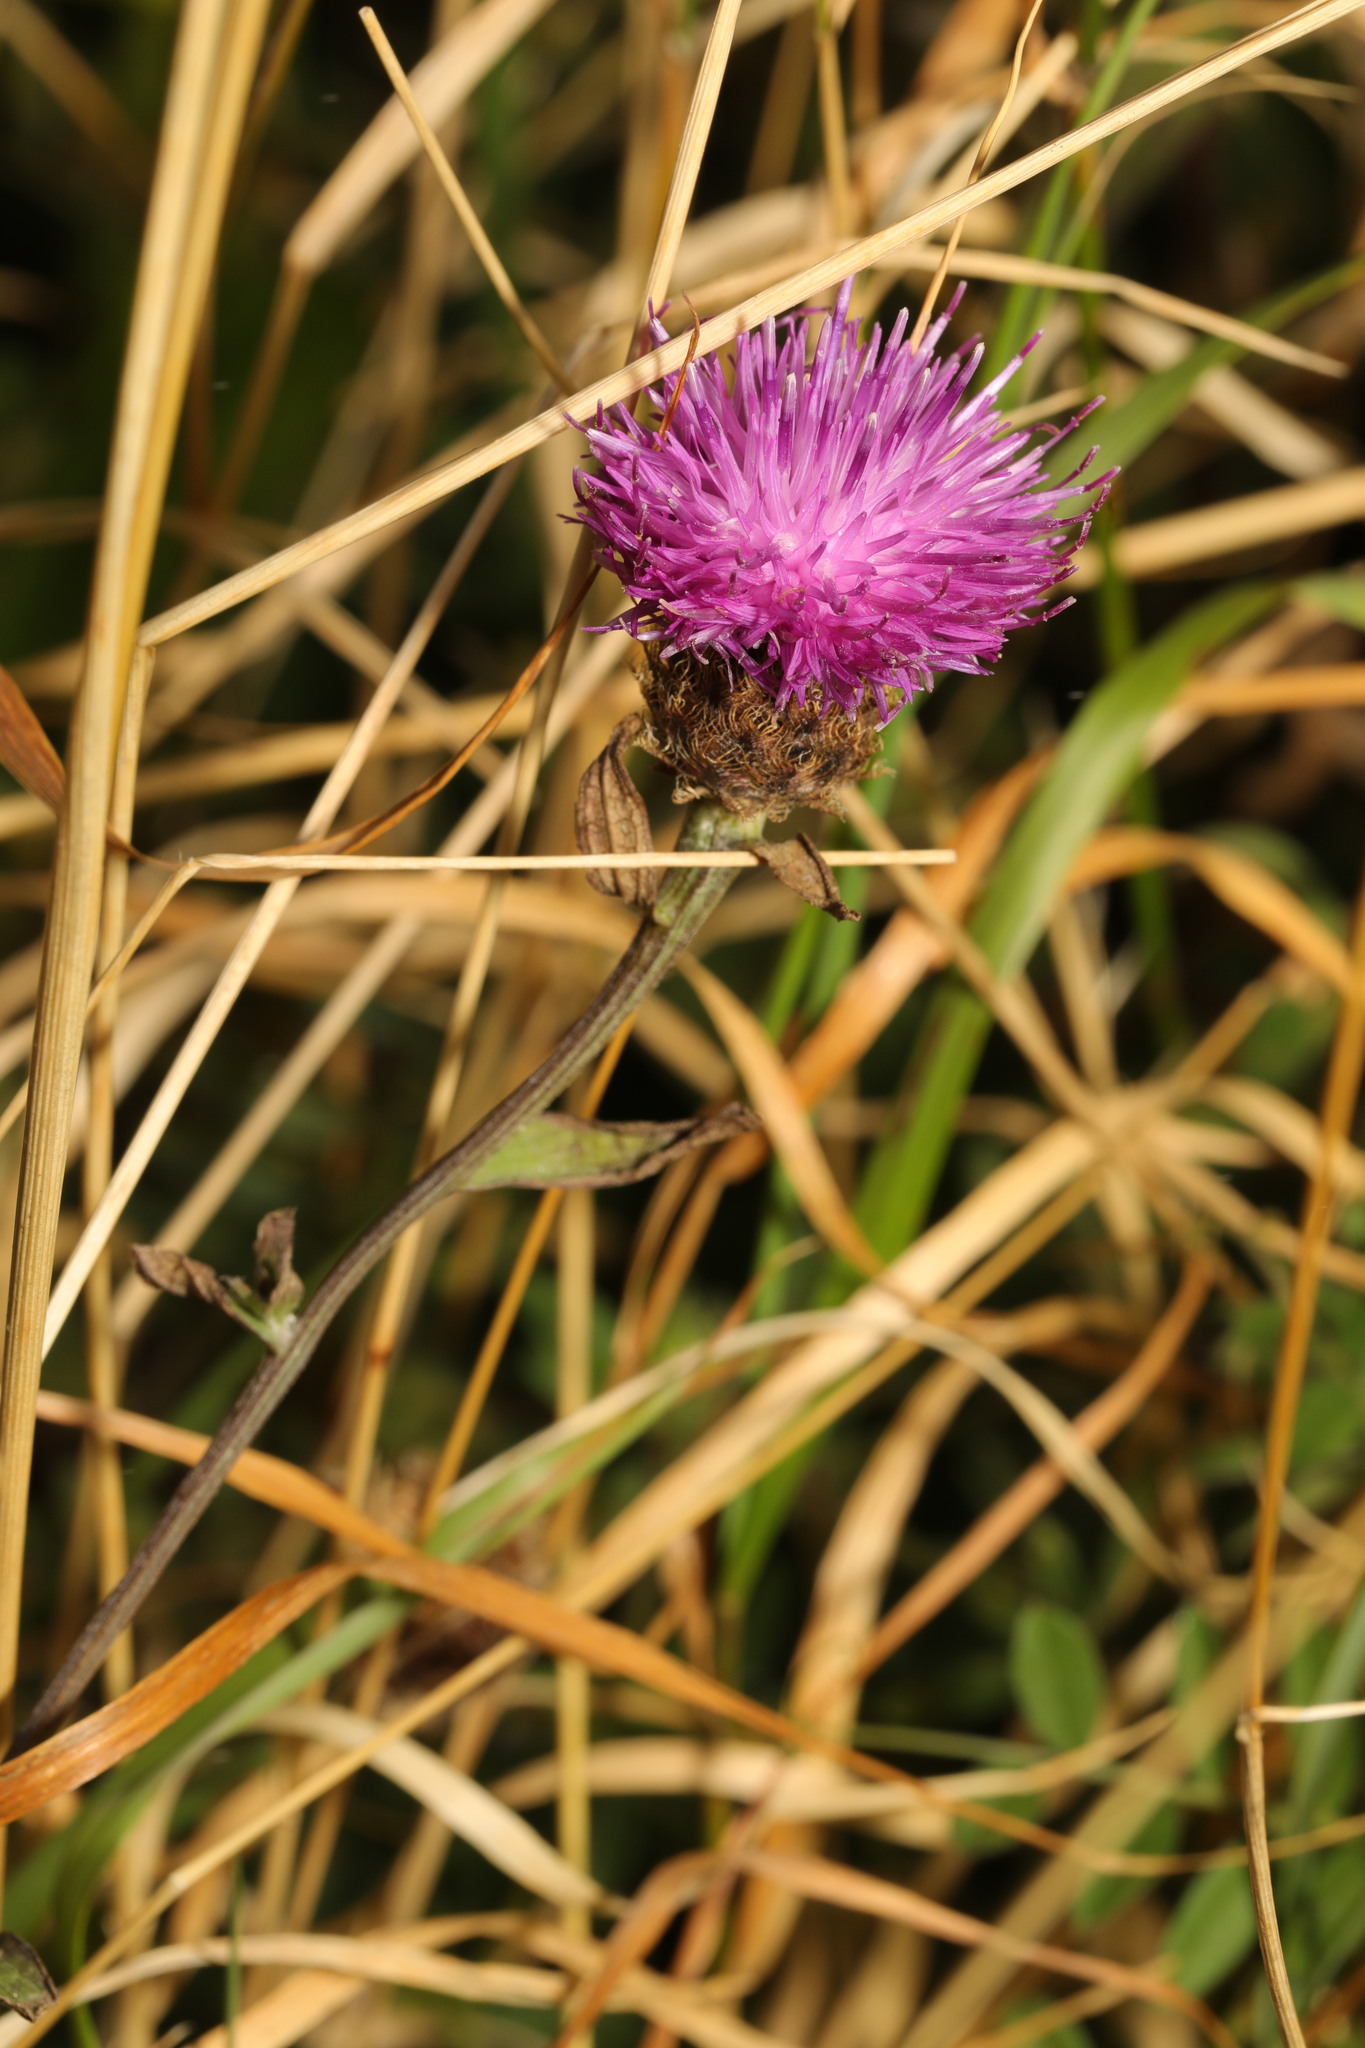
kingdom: Plantae
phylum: Tracheophyta
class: Magnoliopsida
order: Asterales
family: Asteraceae
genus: Centaurea
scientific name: Centaurea nigra
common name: Lesser knapweed
